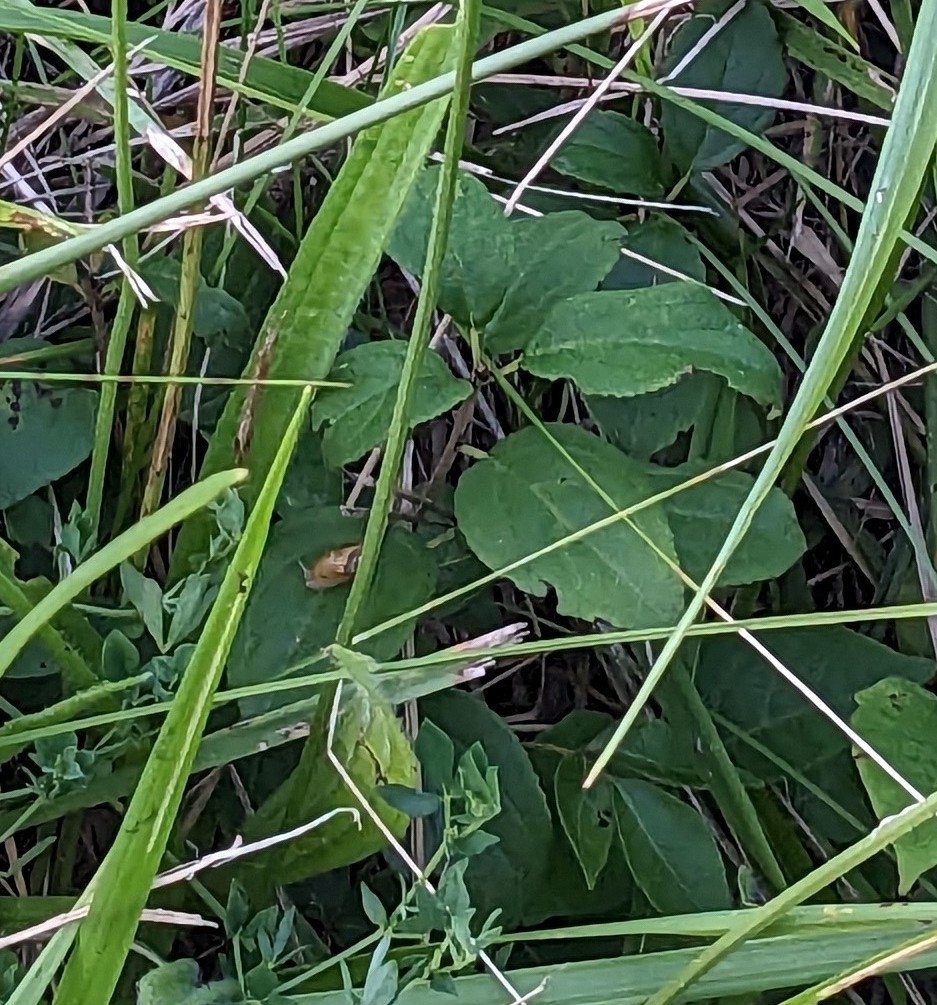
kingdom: Plantae
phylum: Tracheophyta
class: Magnoliopsida
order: Rosales
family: Rhamnaceae
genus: Rhamnus
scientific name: Rhamnus cathartica
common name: Common buckthorn
